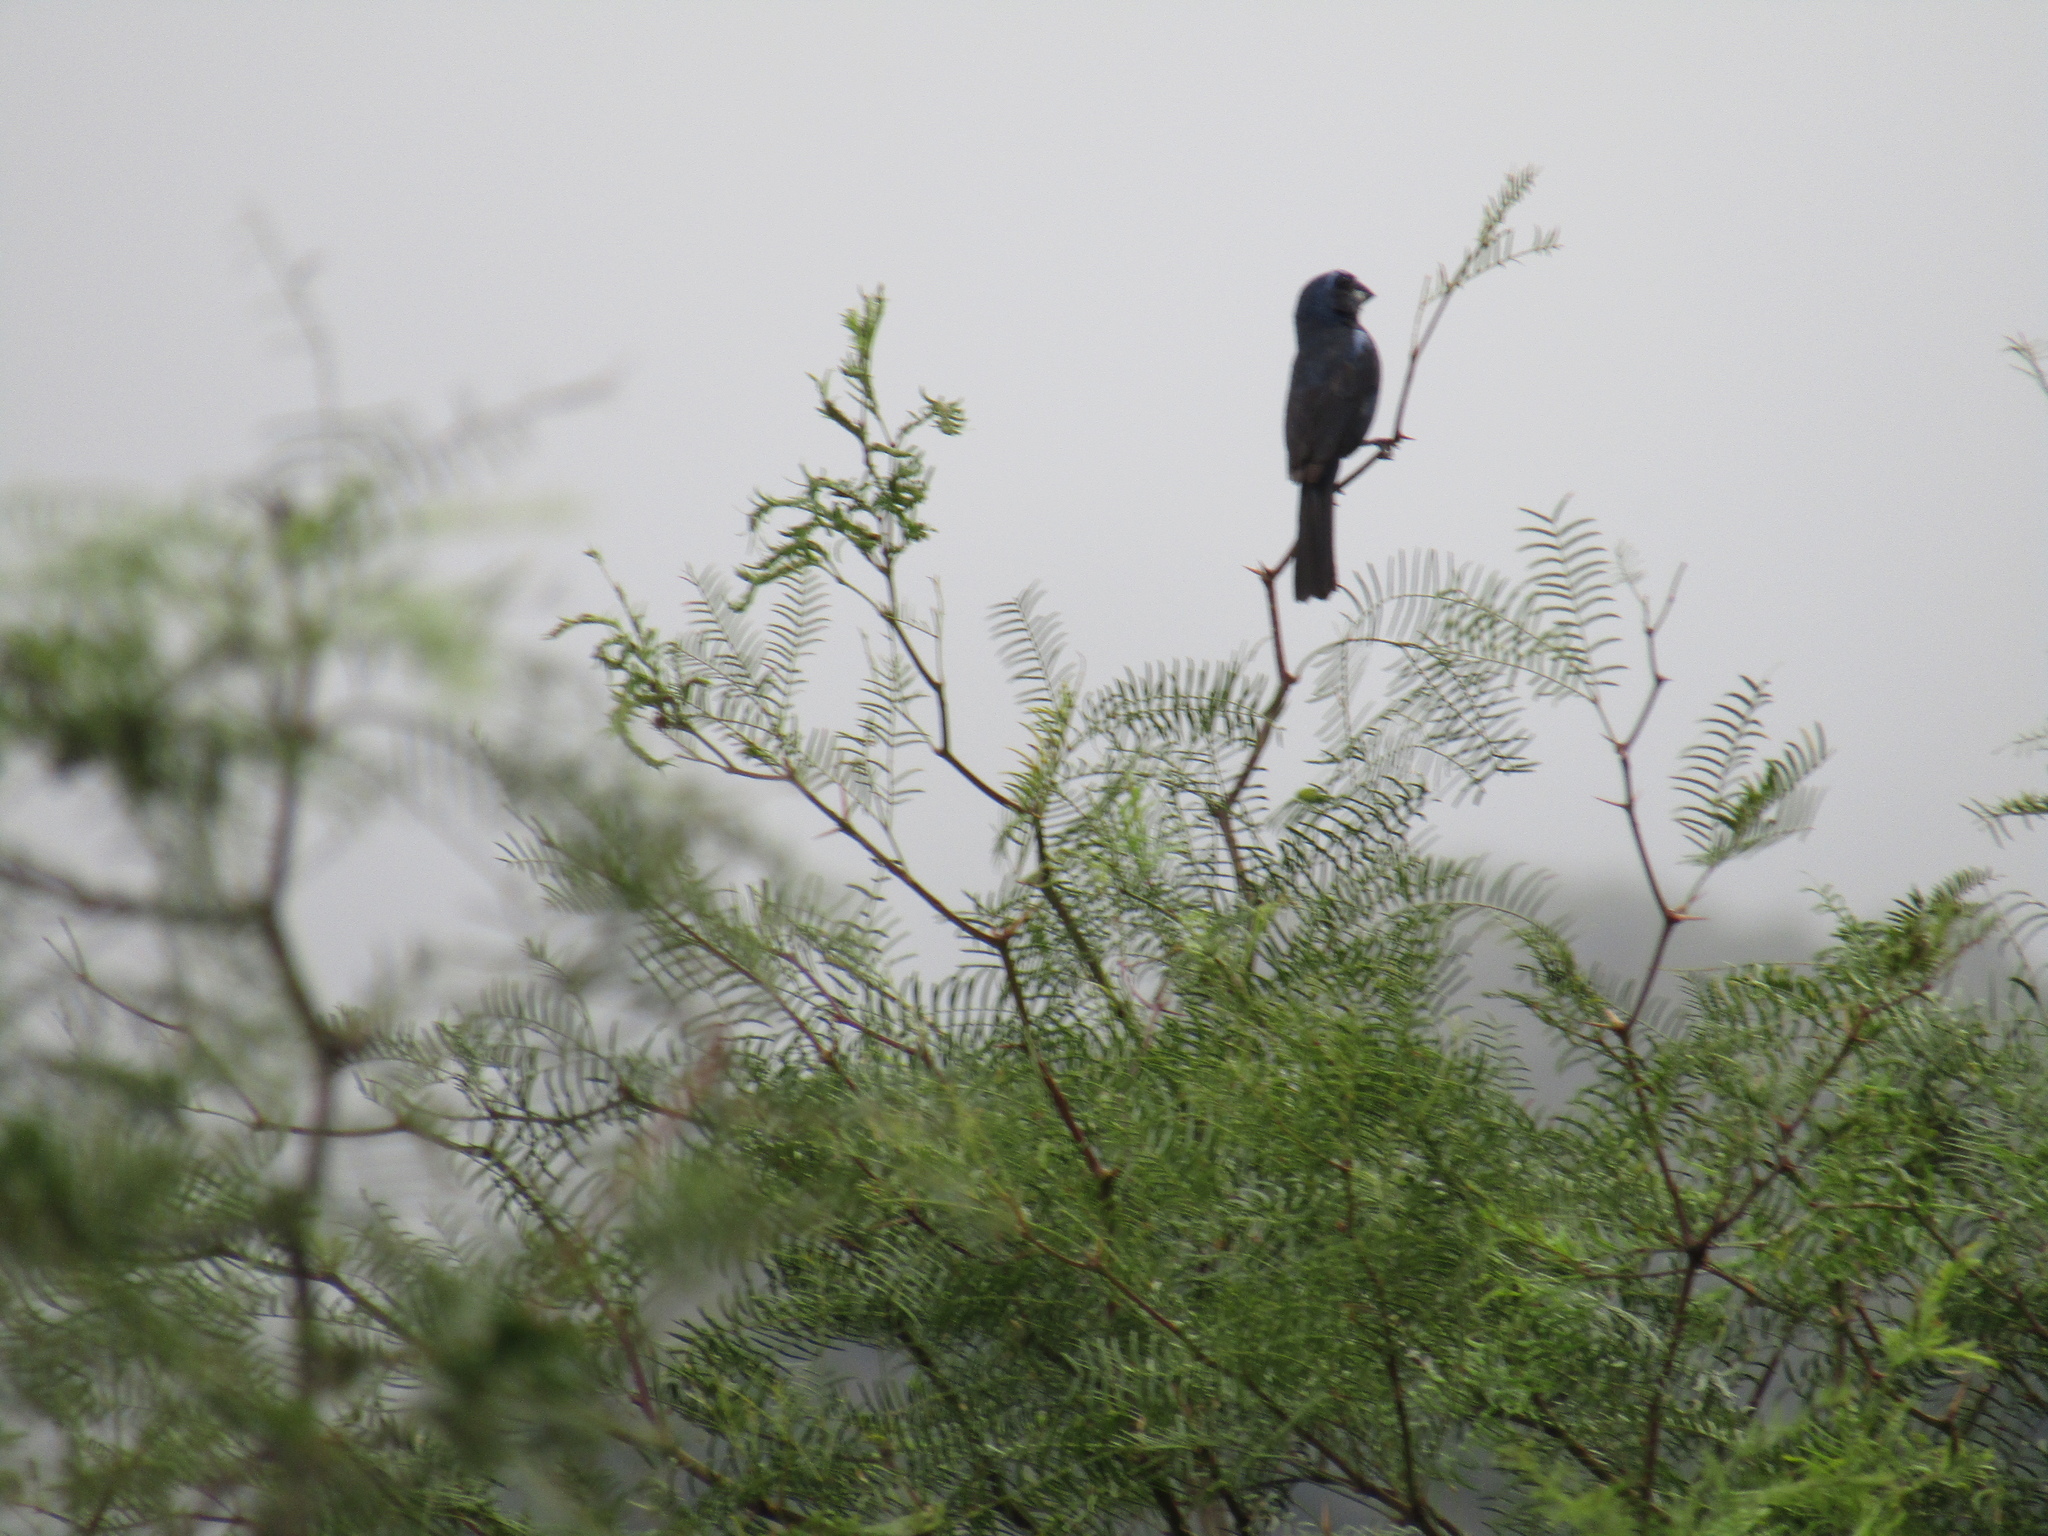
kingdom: Animalia
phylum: Chordata
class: Aves
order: Passeriformes
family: Cardinalidae
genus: Cyanoloxia
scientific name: Cyanoloxia brissonii
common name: Ultramarine grosbeak
